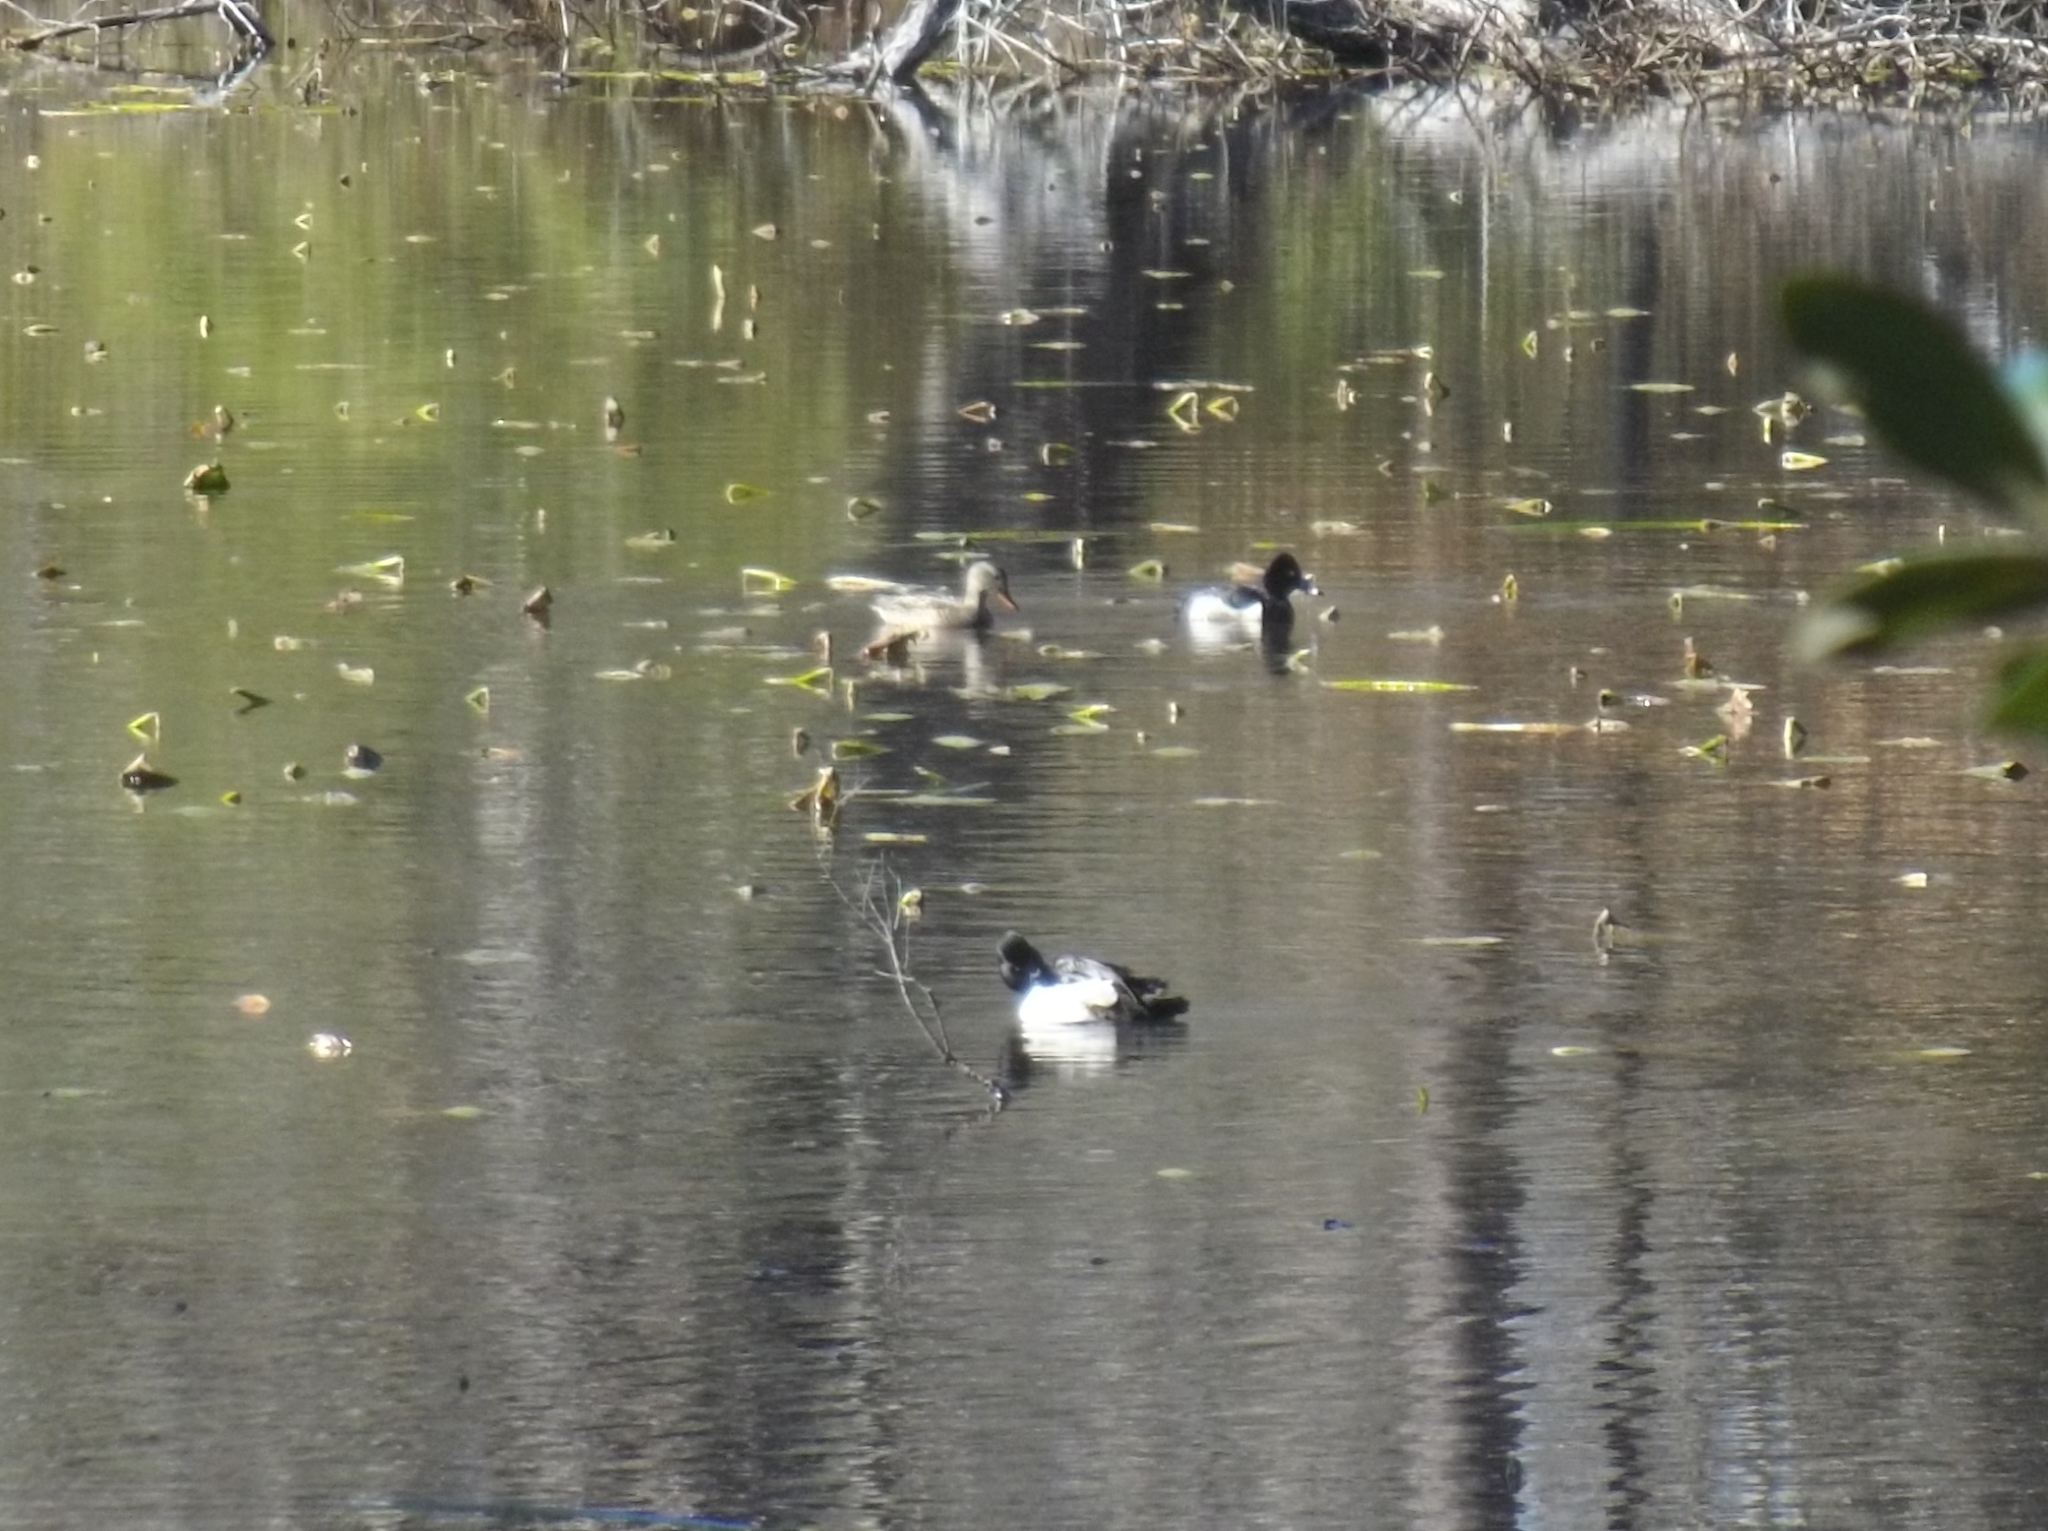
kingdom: Animalia
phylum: Chordata
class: Aves
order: Anseriformes
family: Anatidae
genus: Aythya
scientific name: Aythya collaris
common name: Ring-necked duck
